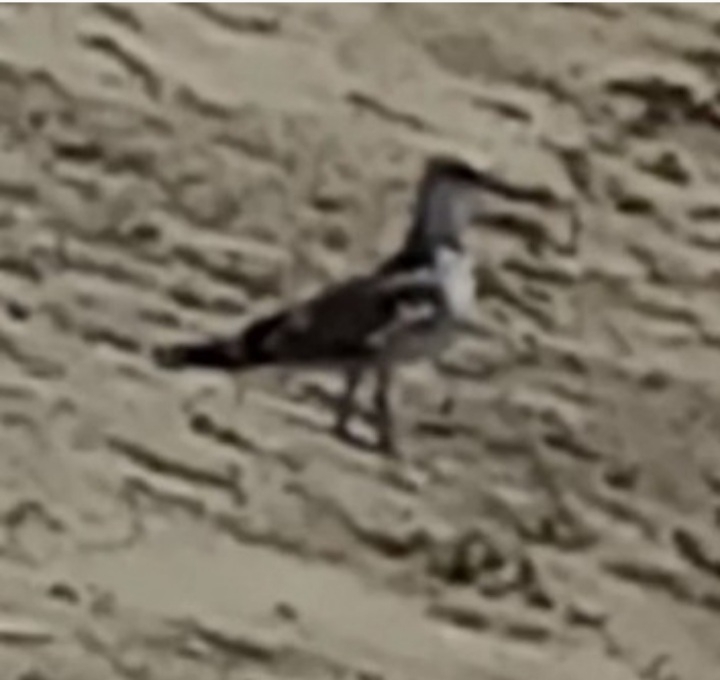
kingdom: Animalia
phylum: Chordata
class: Aves
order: Charadriiformes
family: Scolopacidae
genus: Calidris
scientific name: Calidris alpina
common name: Dunlin
